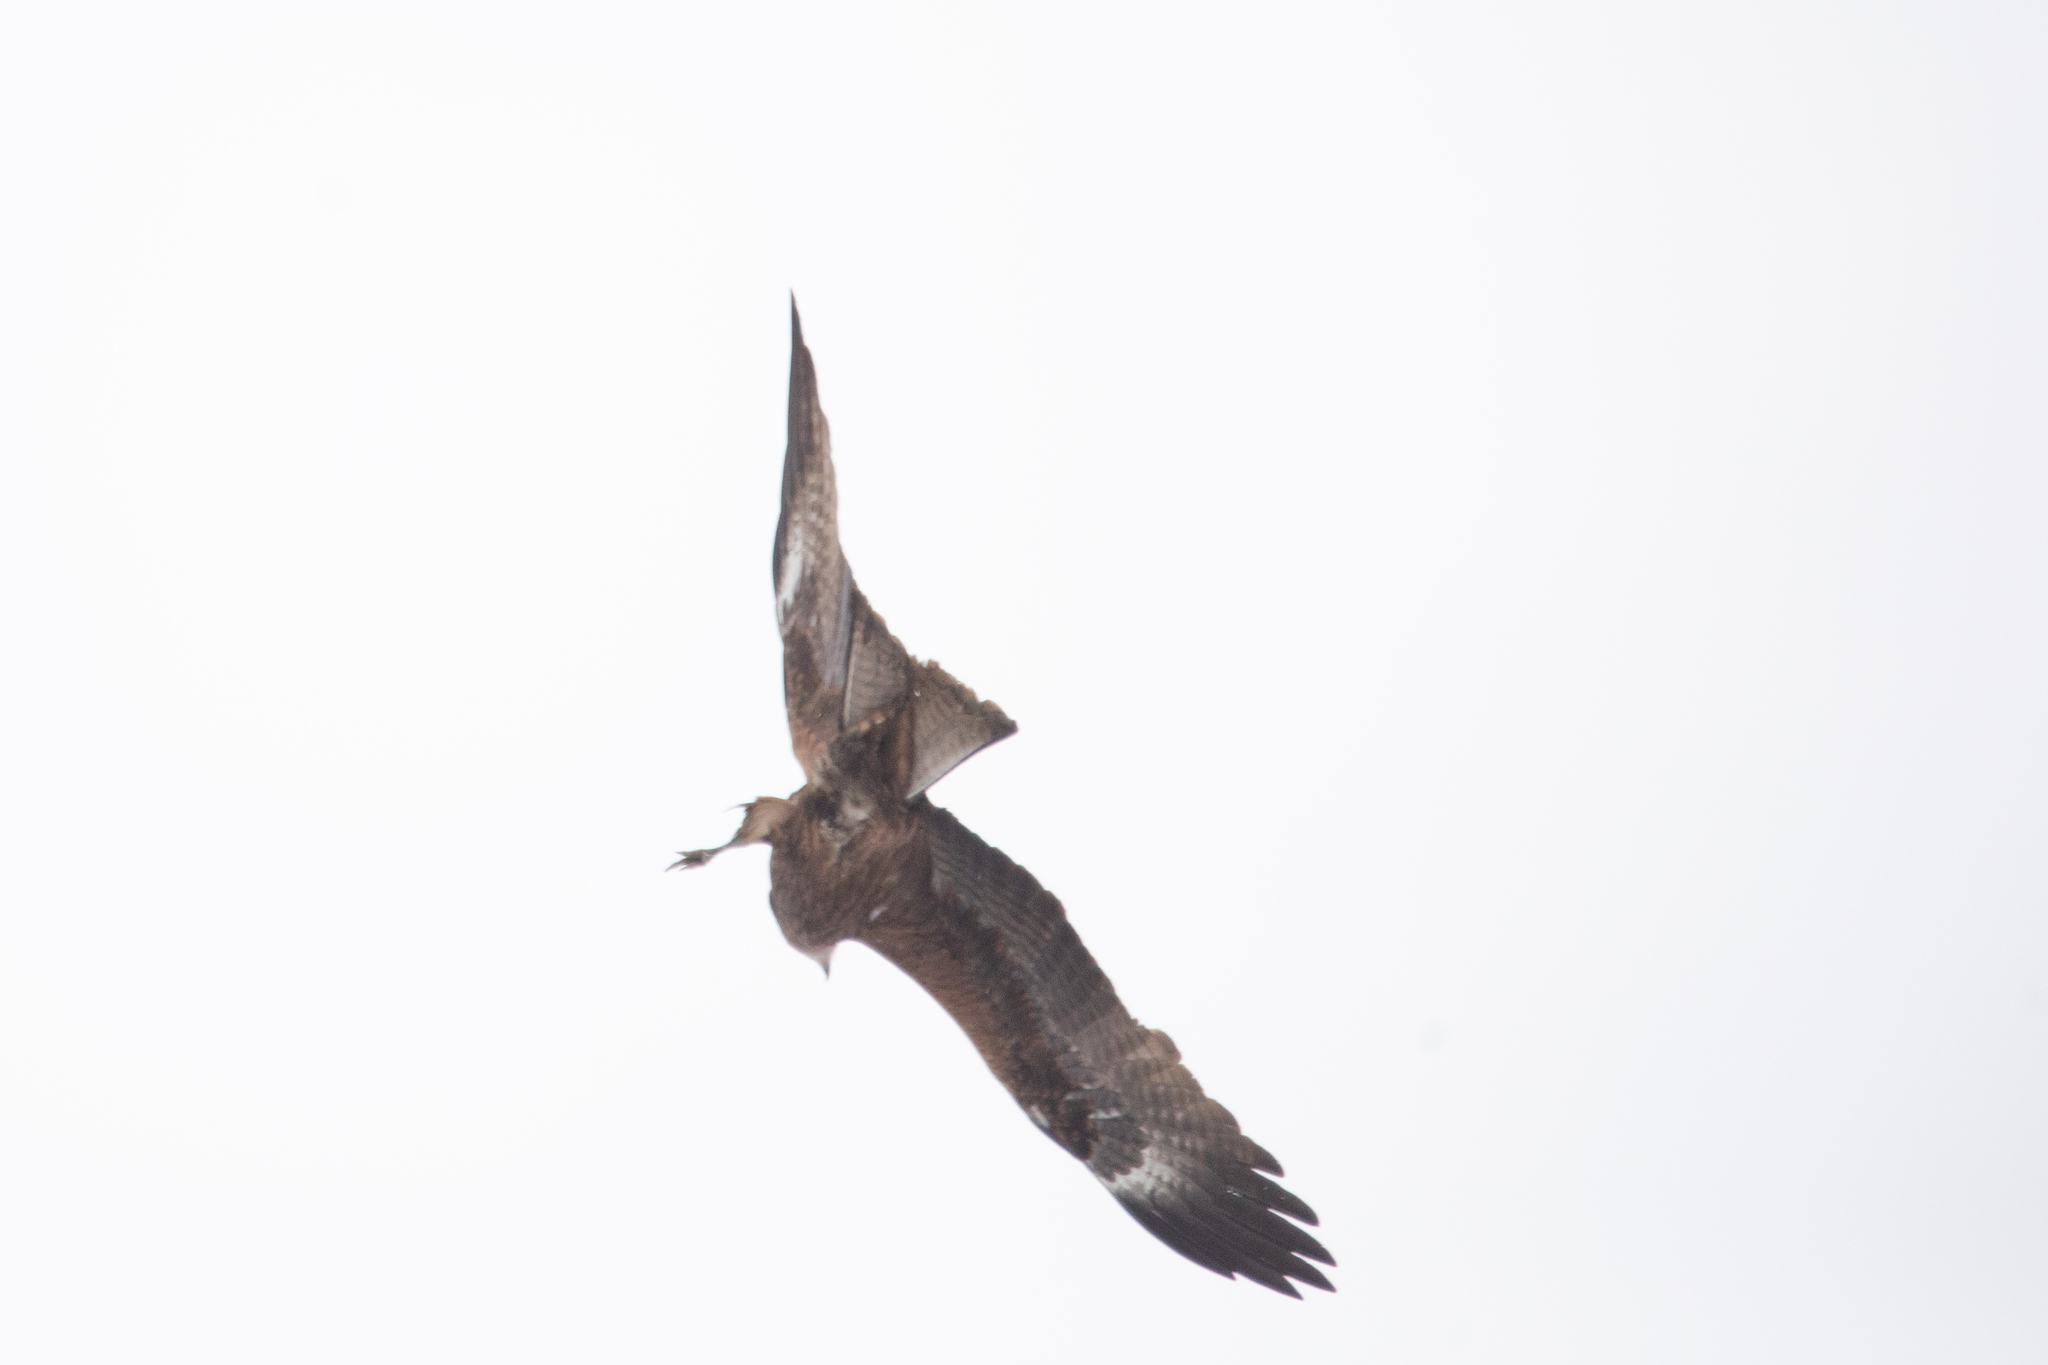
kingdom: Animalia
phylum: Chordata
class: Aves
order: Accipitriformes
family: Accipitridae
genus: Milvus
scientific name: Milvus migrans
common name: Black kite
